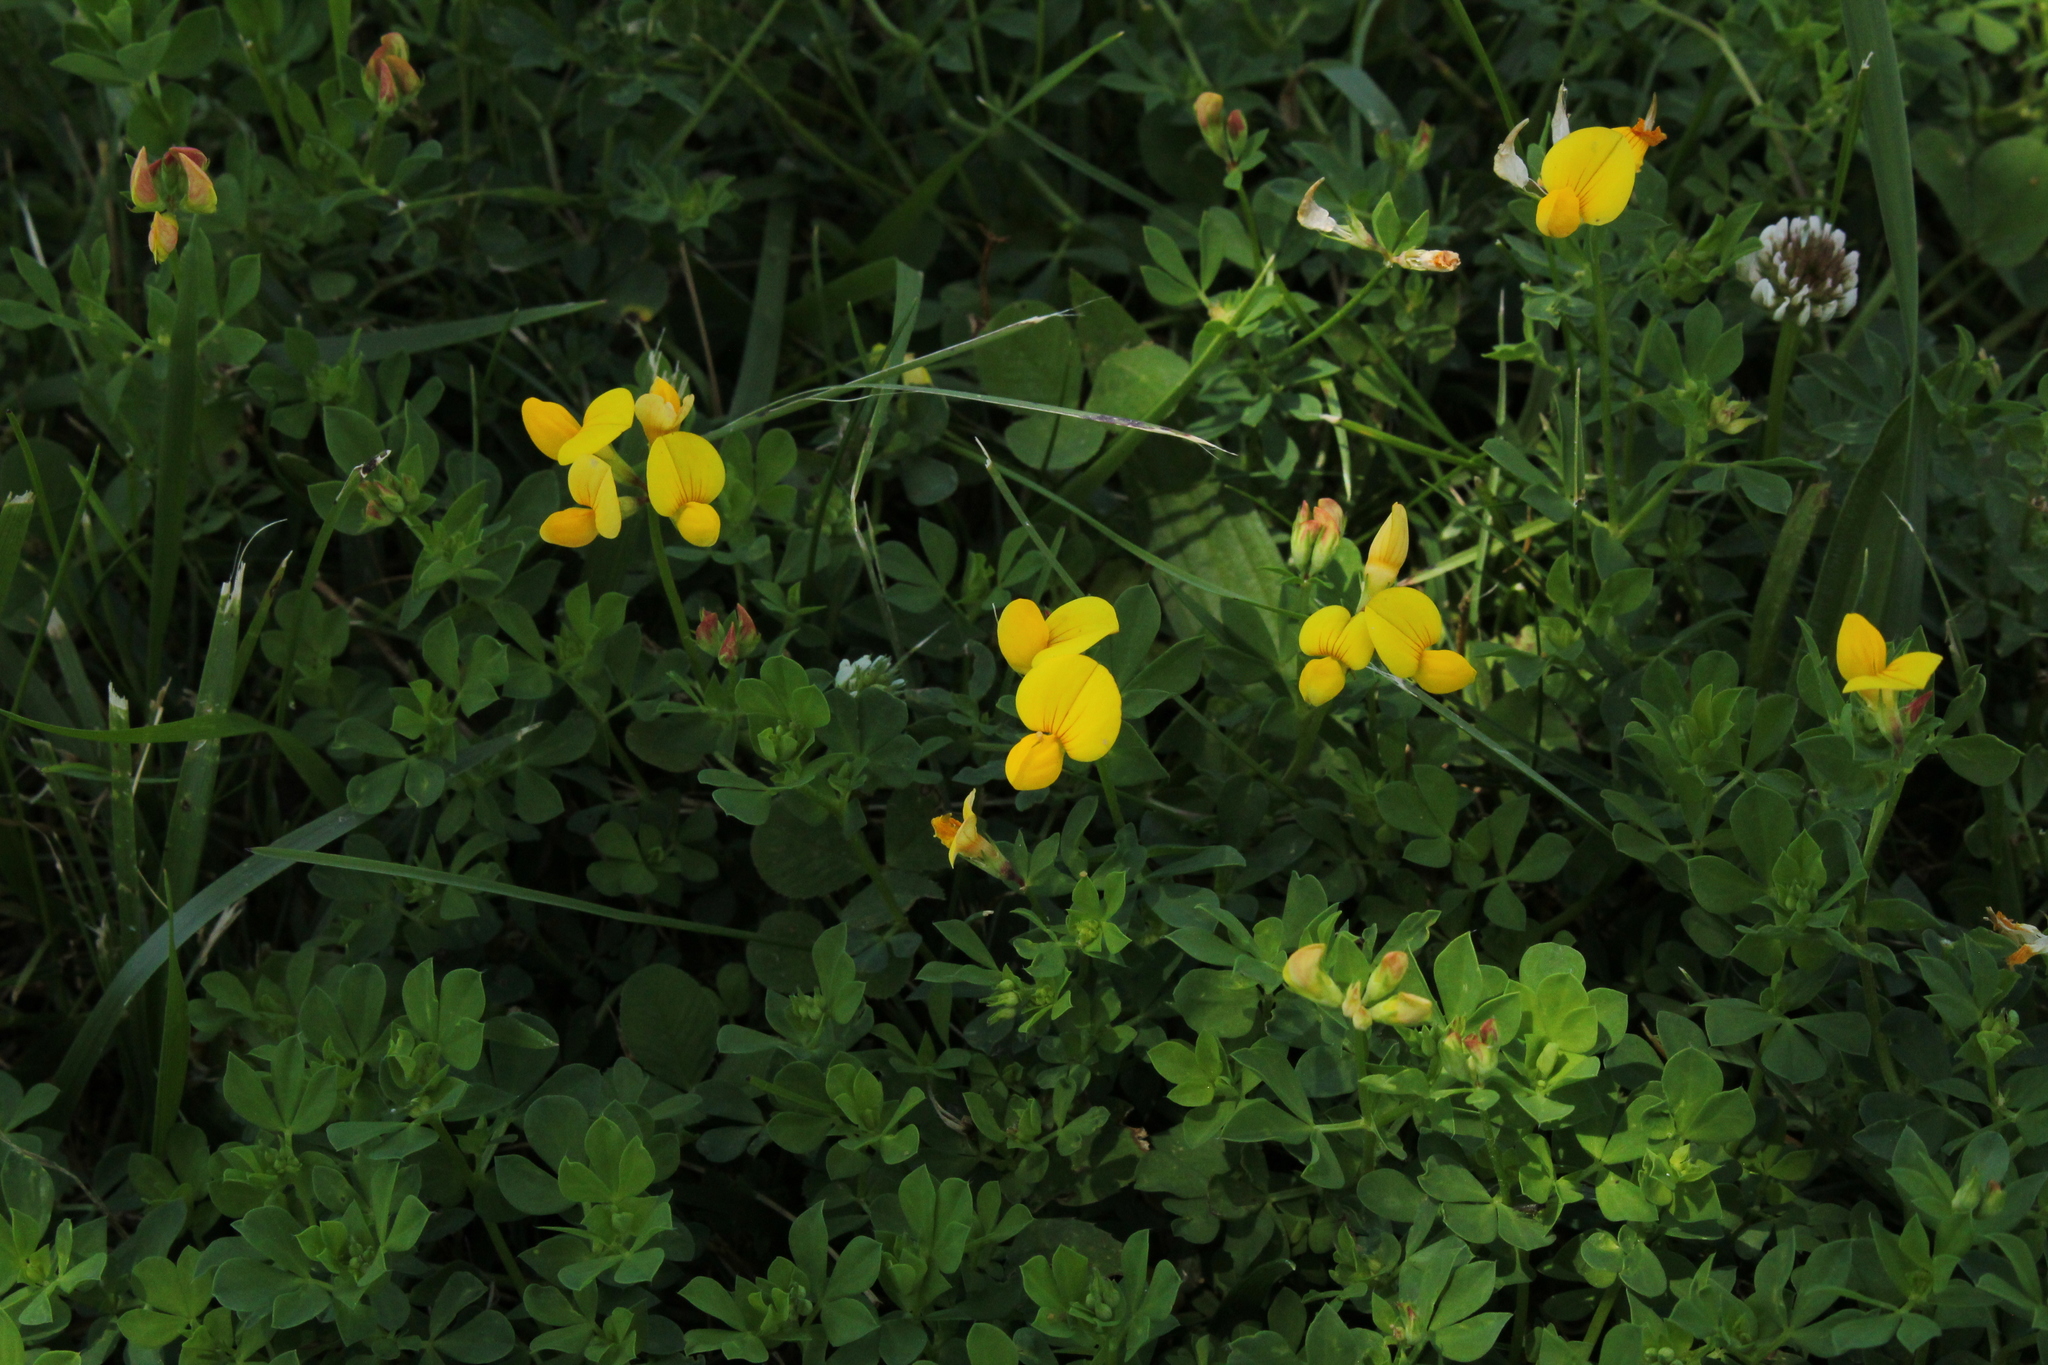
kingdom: Plantae
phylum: Tracheophyta
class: Magnoliopsida
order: Fabales
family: Fabaceae
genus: Lotus
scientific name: Lotus corniculatus
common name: Common bird's-foot-trefoil
